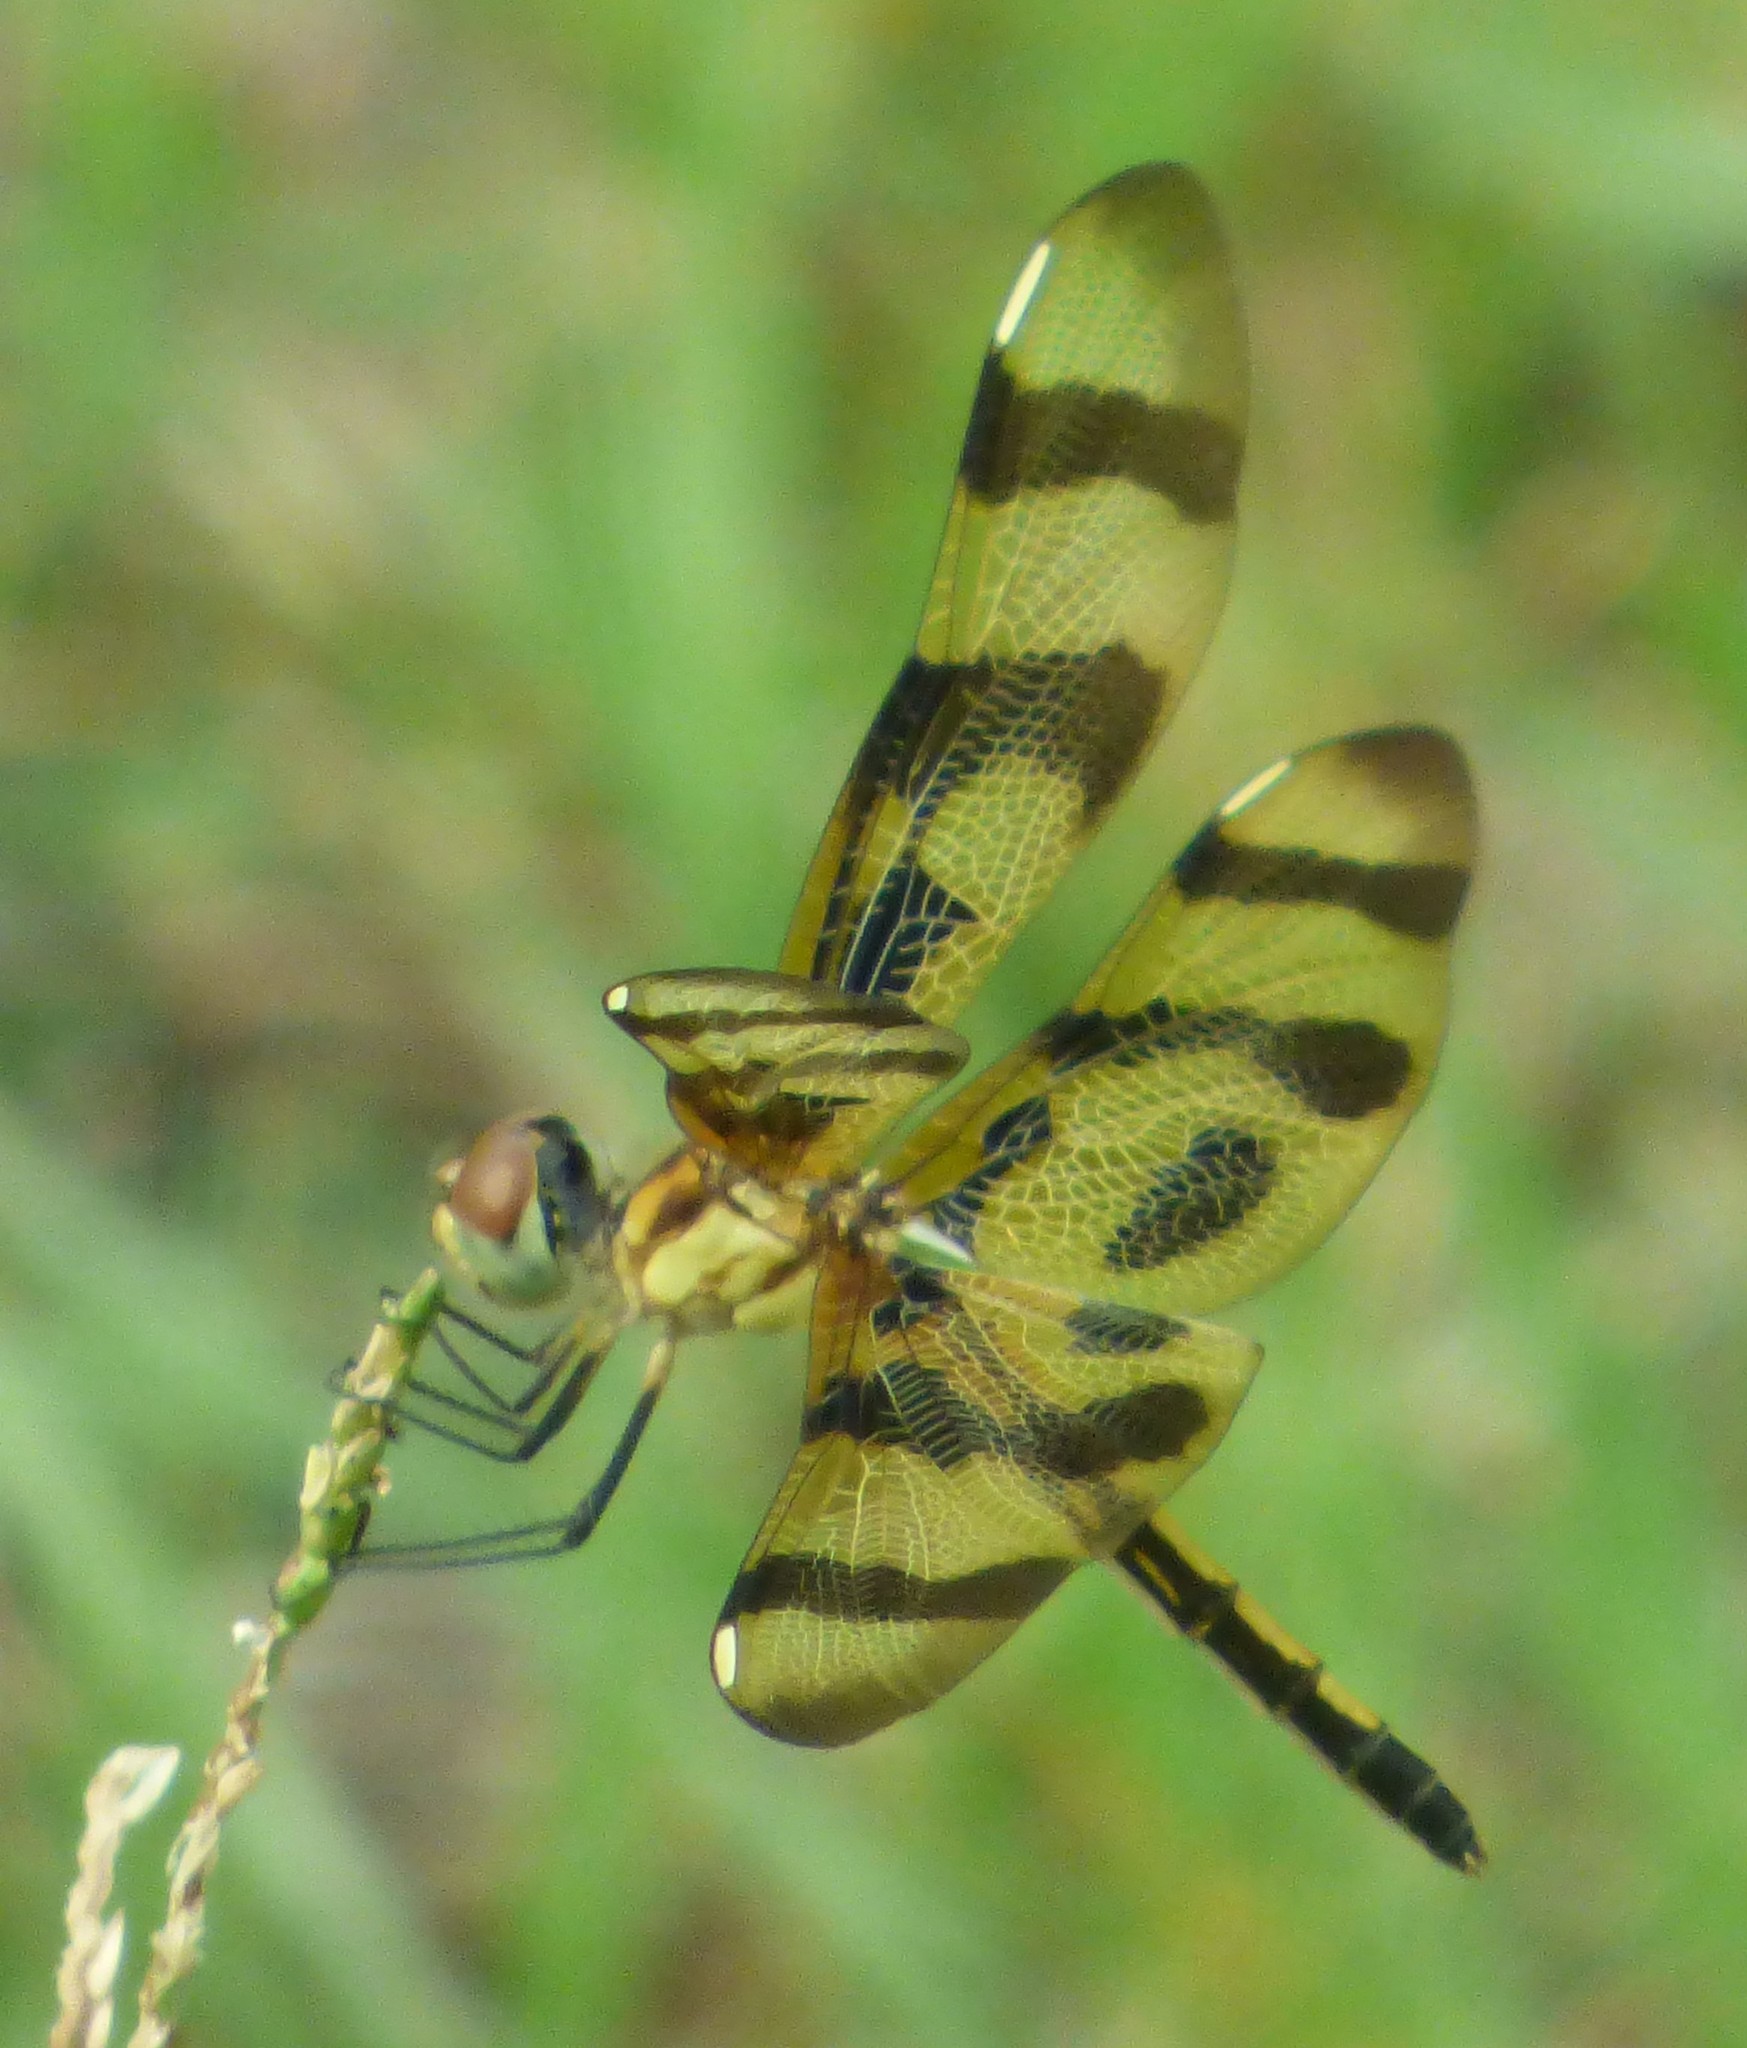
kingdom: Animalia
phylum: Arthropoda
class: Insecta
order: Odonata
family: Libellulidae
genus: Celithemis
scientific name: Celithemis eponina
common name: Halloween pennant
